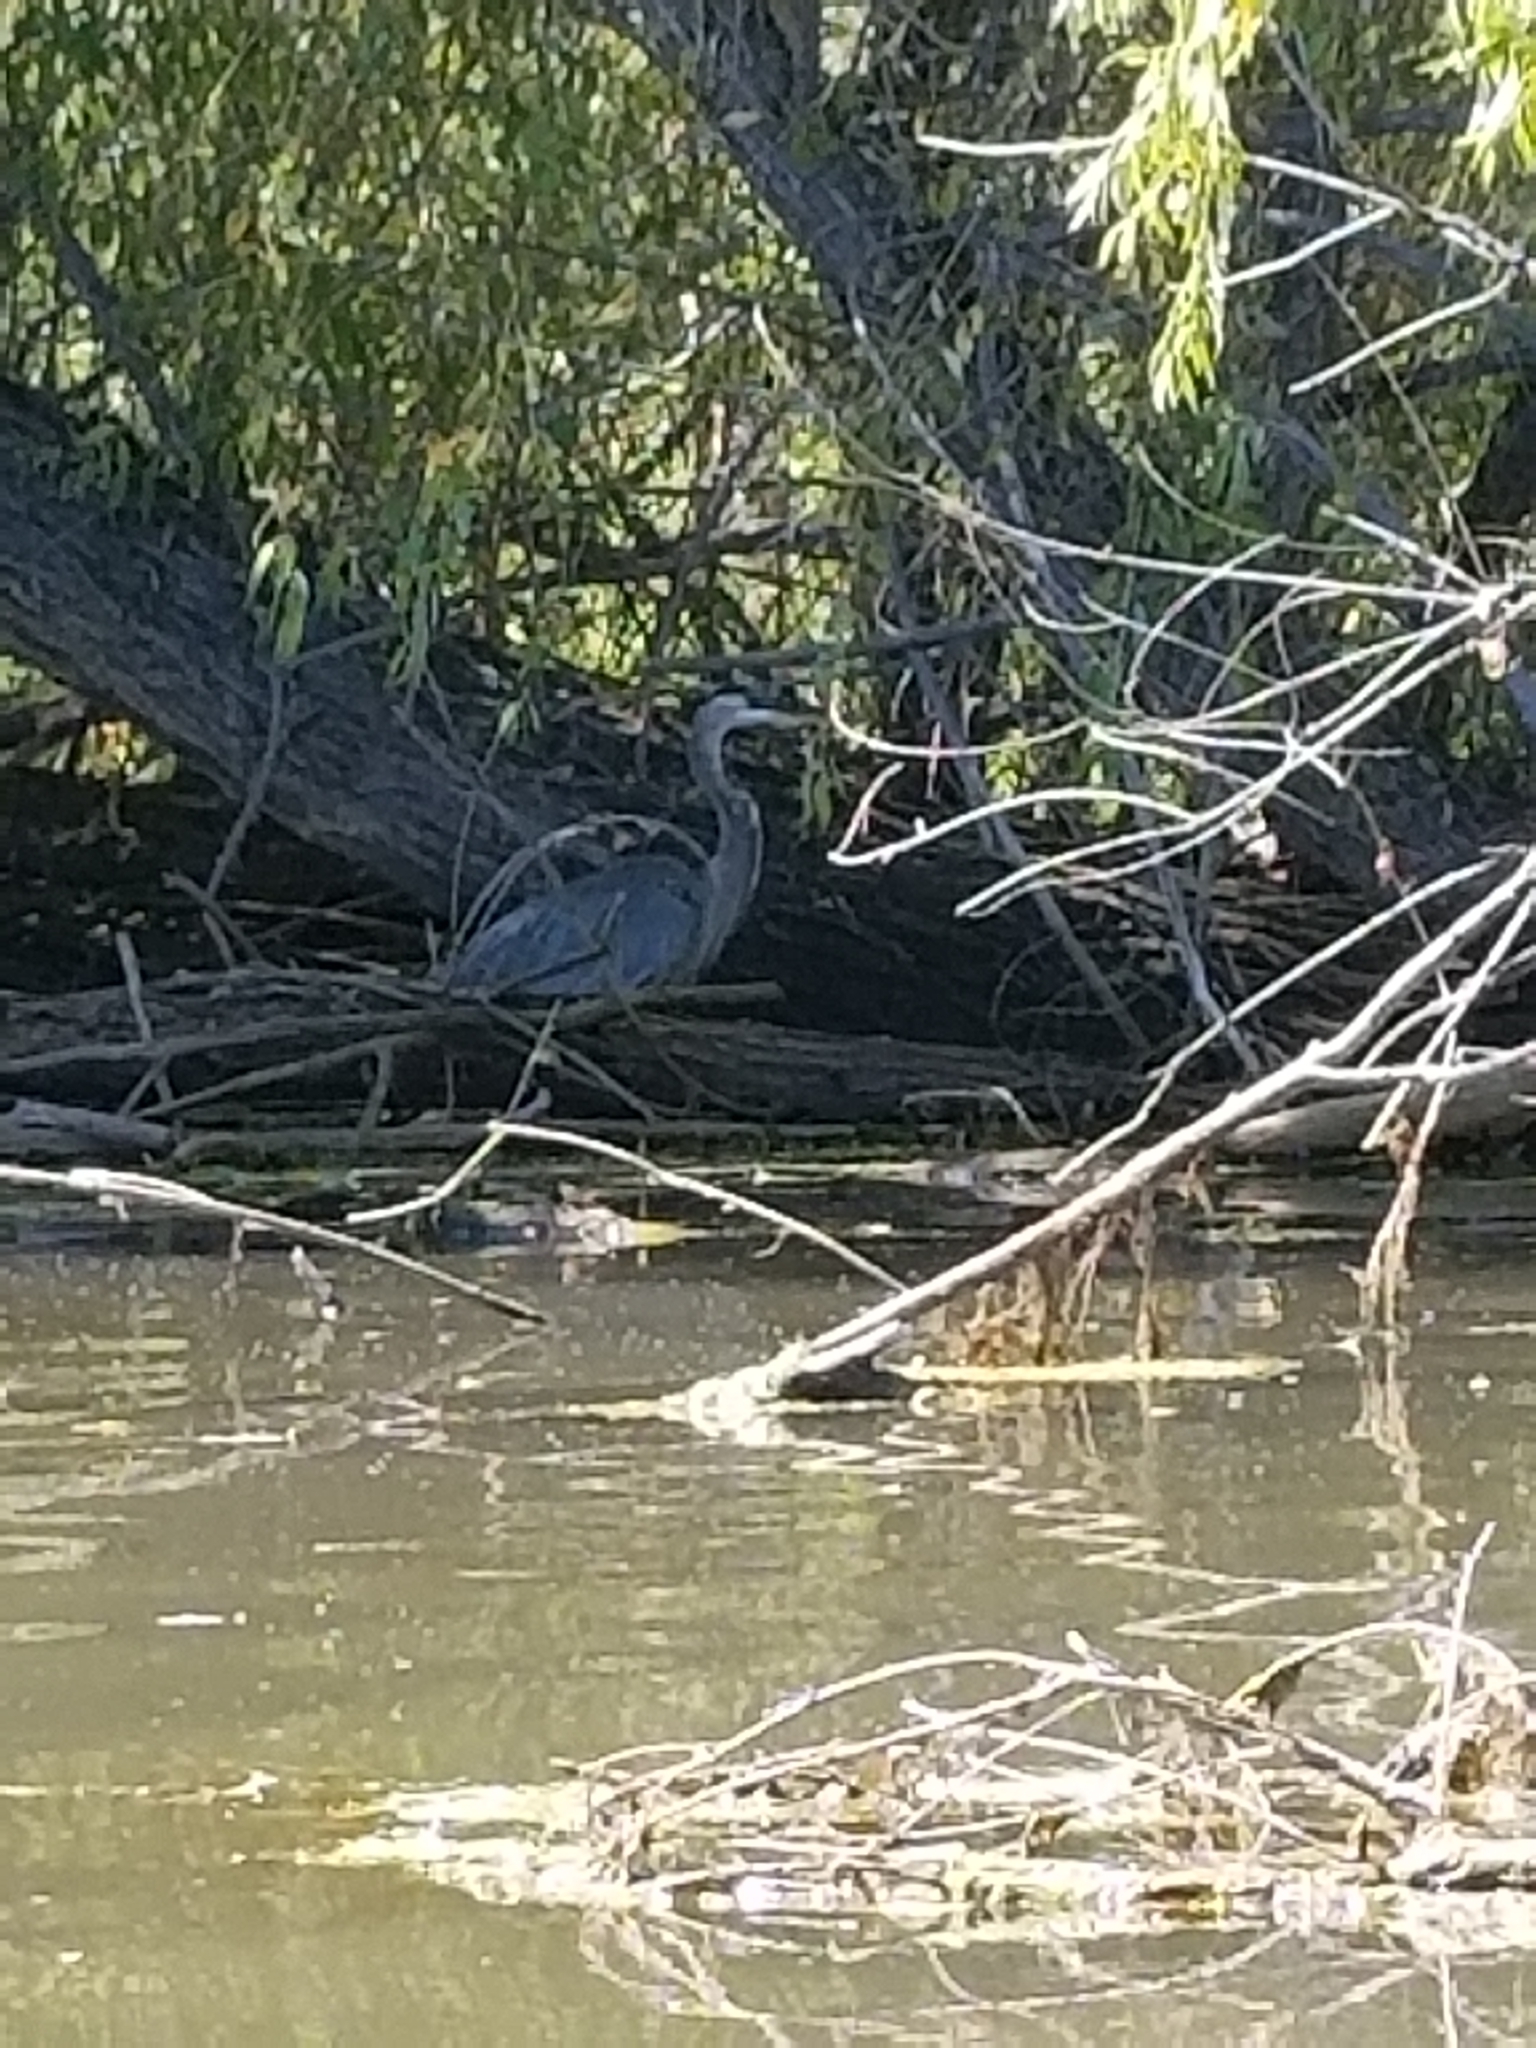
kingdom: Animalia
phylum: Chordata
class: Aves
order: Pelecaniformes
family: Ardeidae
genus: Ardea
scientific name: Ardea herodias
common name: Great blue heron
